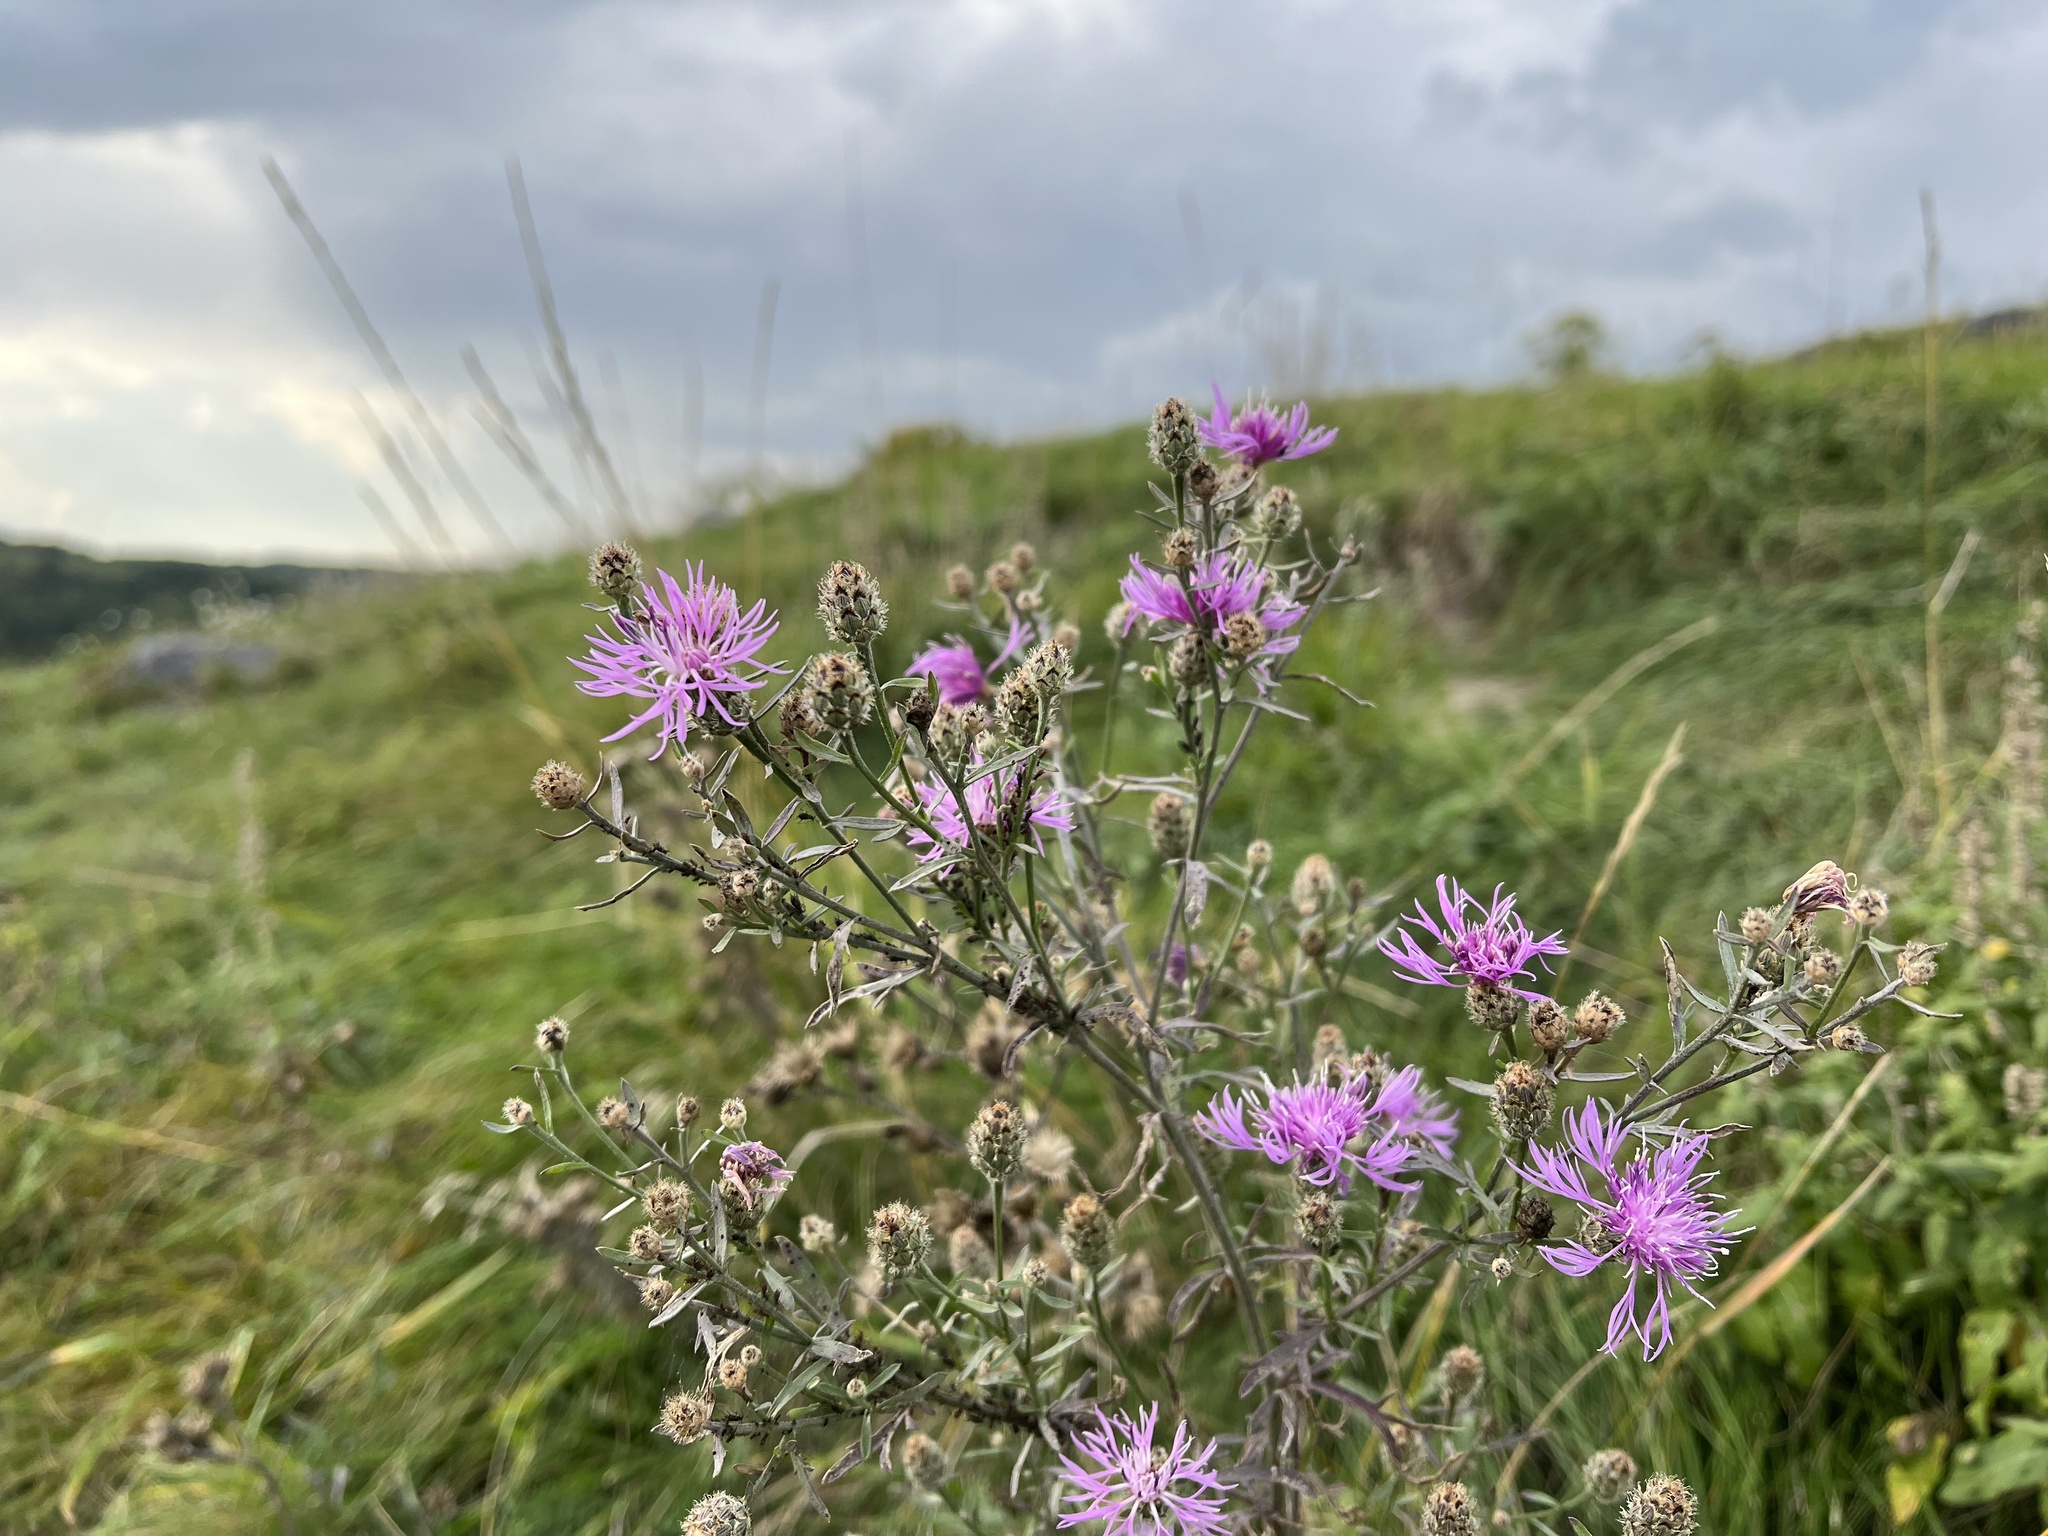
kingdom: Plantae
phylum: Tracheophyta
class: Magnoliopsida
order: Asterales
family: Asteraceae
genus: Centaurea
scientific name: Centaurea stoebe
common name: Spotted knapweed
